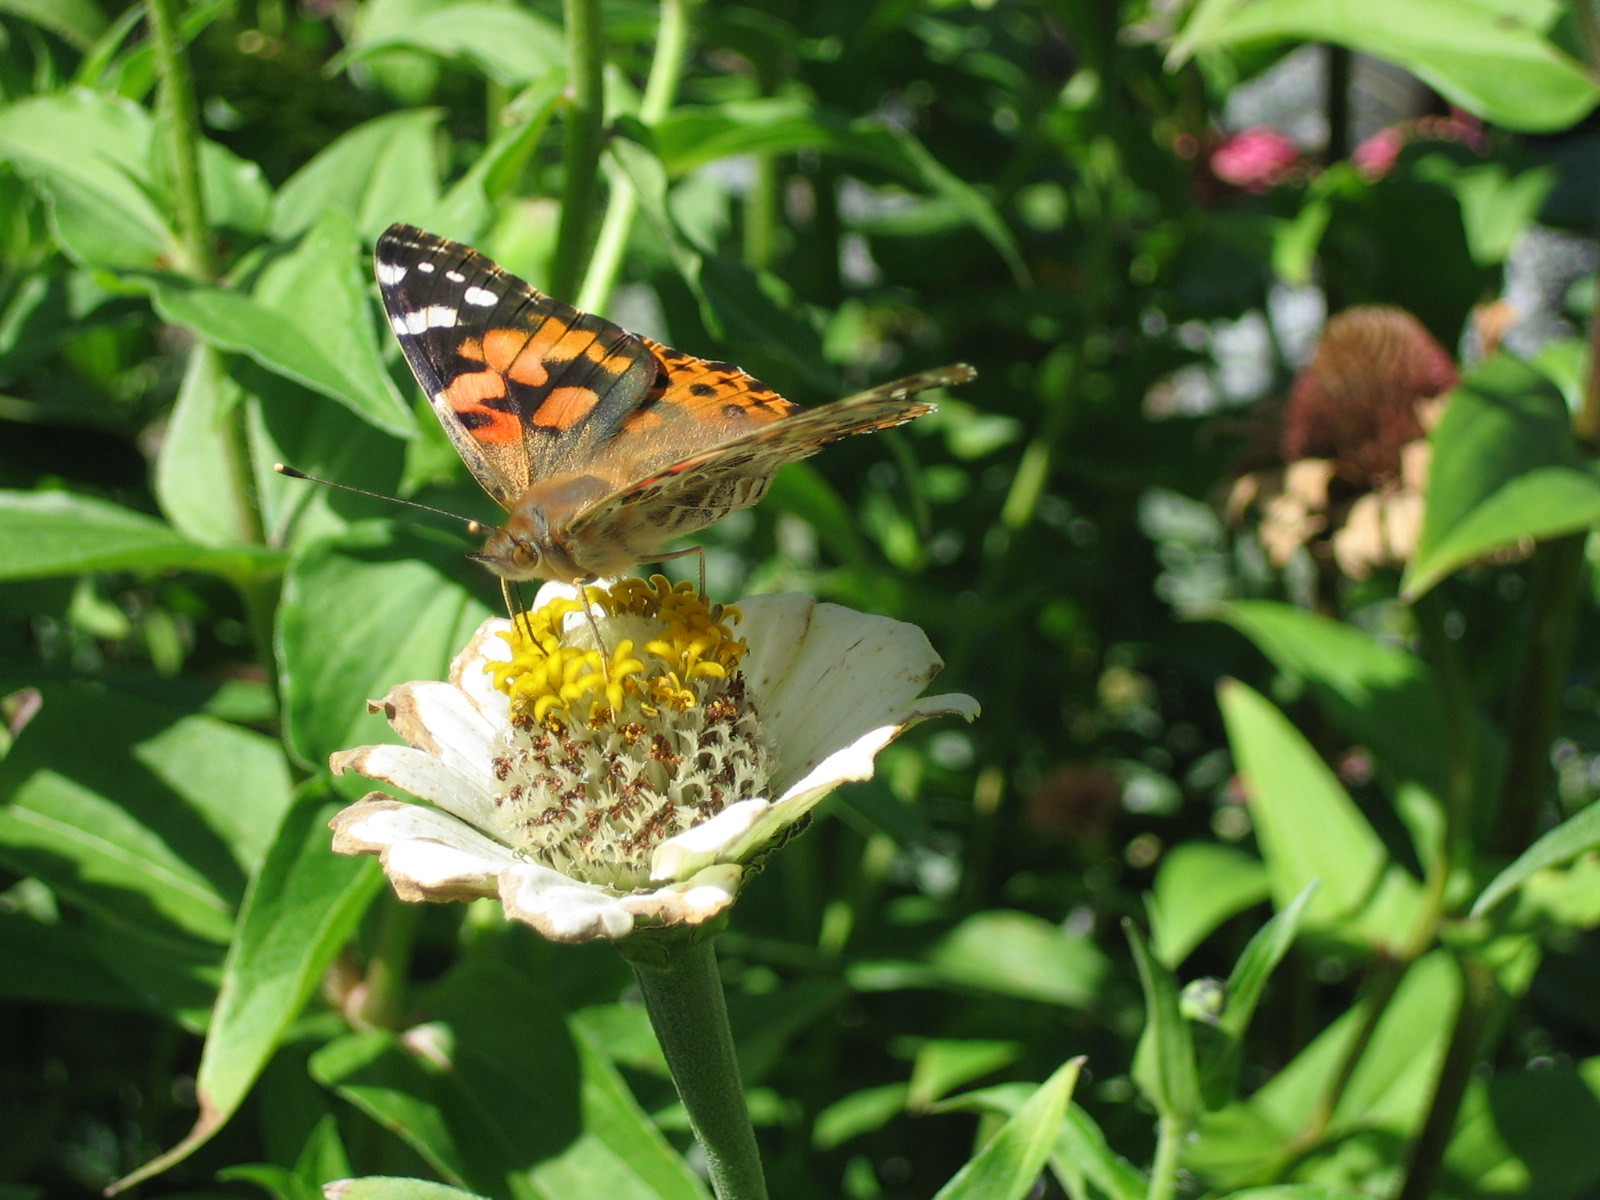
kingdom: Animalia
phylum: Arthropoda
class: Insecta
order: Lepidoptera
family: Nymphalidae
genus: Vanessa
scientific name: Vanessa cardui
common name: Painted lady
